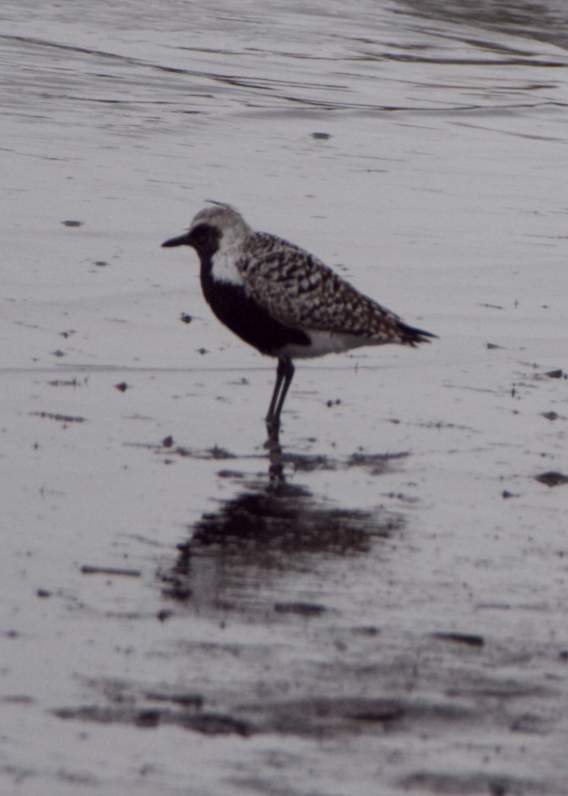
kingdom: Animalia
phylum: Chordata
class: Aves
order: Charadriiformes
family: Charadriidae
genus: Pluvialis
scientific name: Pluvialis squatarola
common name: Grey plover
